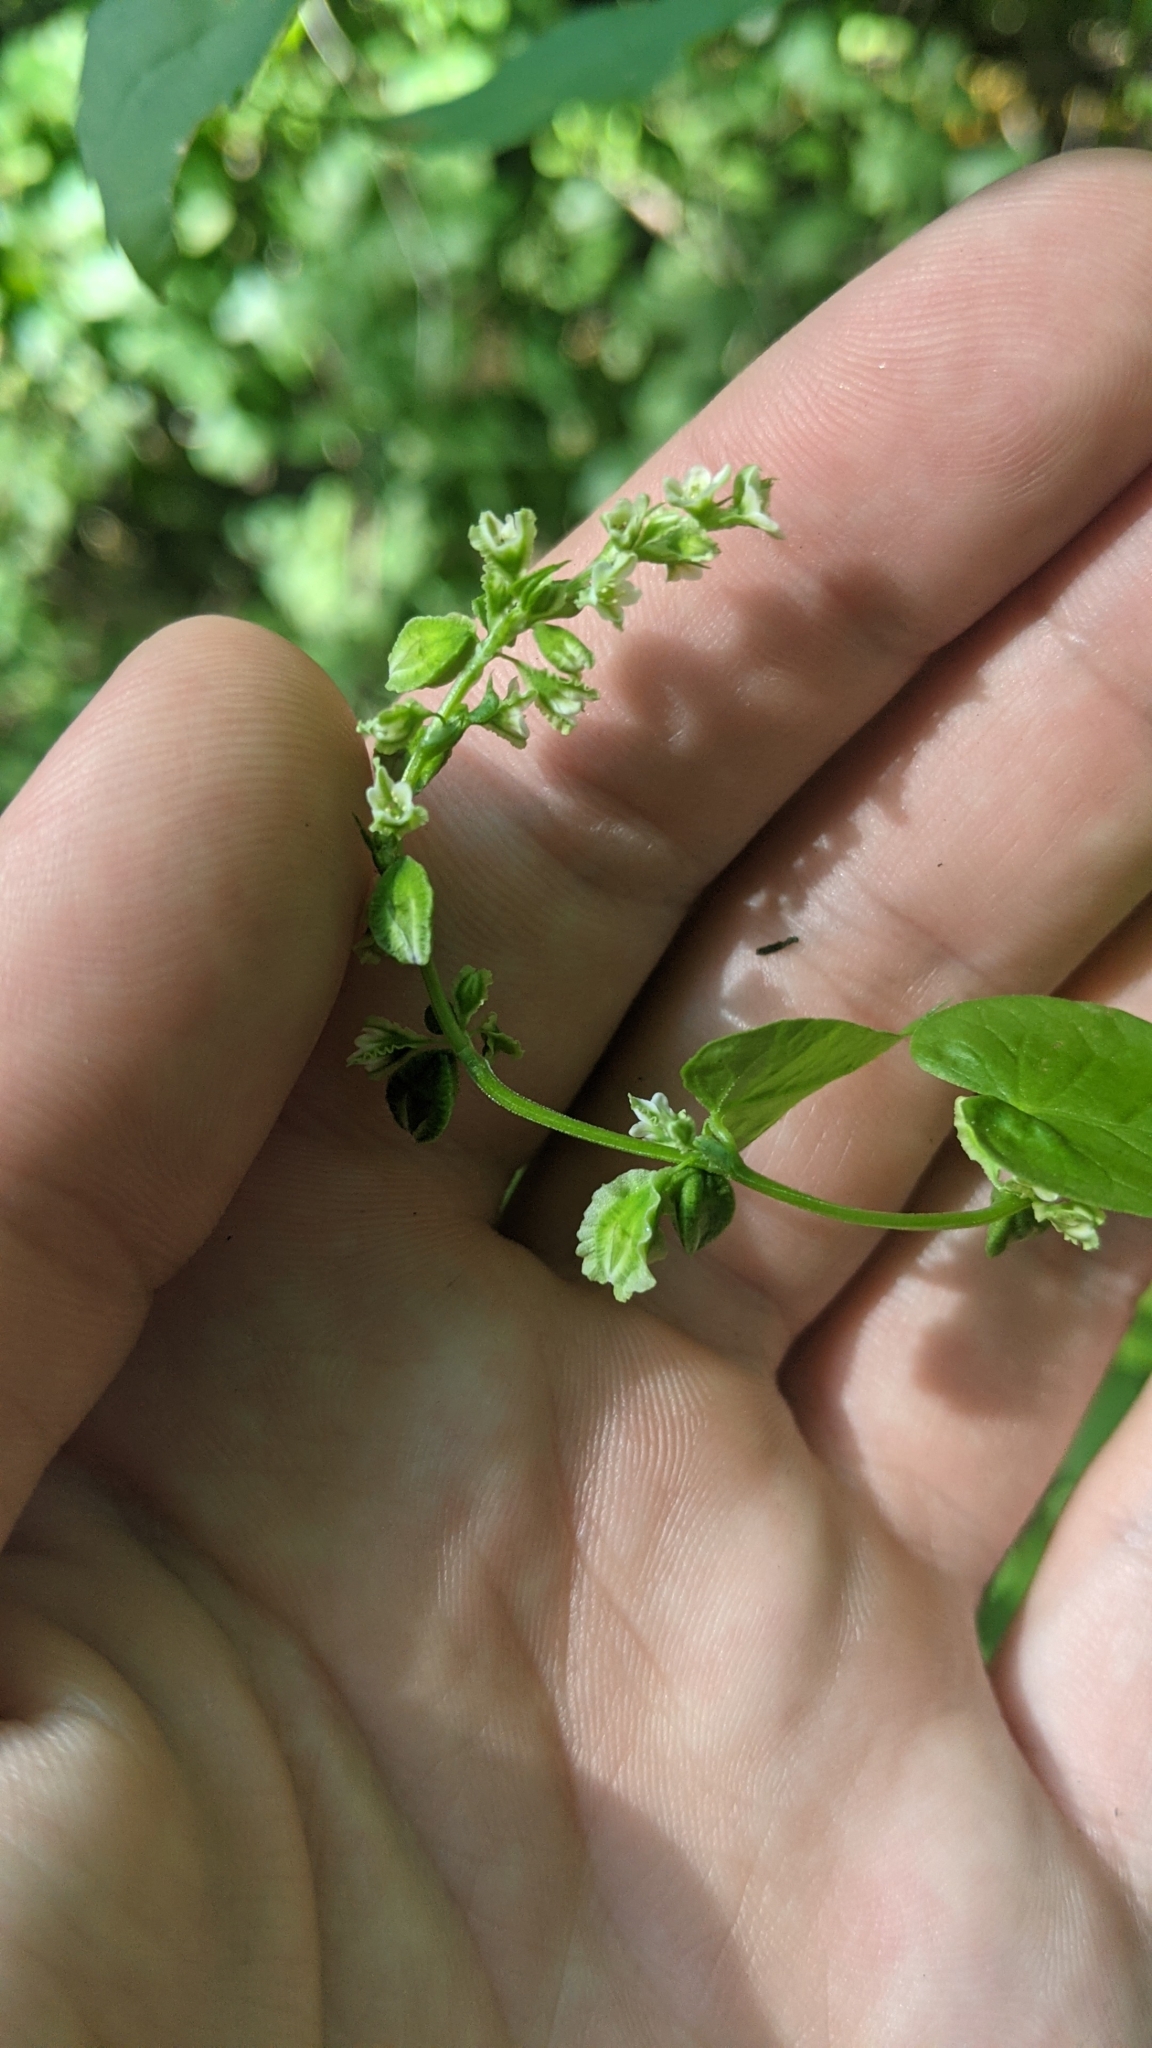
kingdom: Plantae
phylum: Tracheophyta
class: Magnoliopsida
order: Caryophyllales
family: Polygonaceae
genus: Fallopia
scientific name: Fallopia scandens
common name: Climbing false buckwheat
